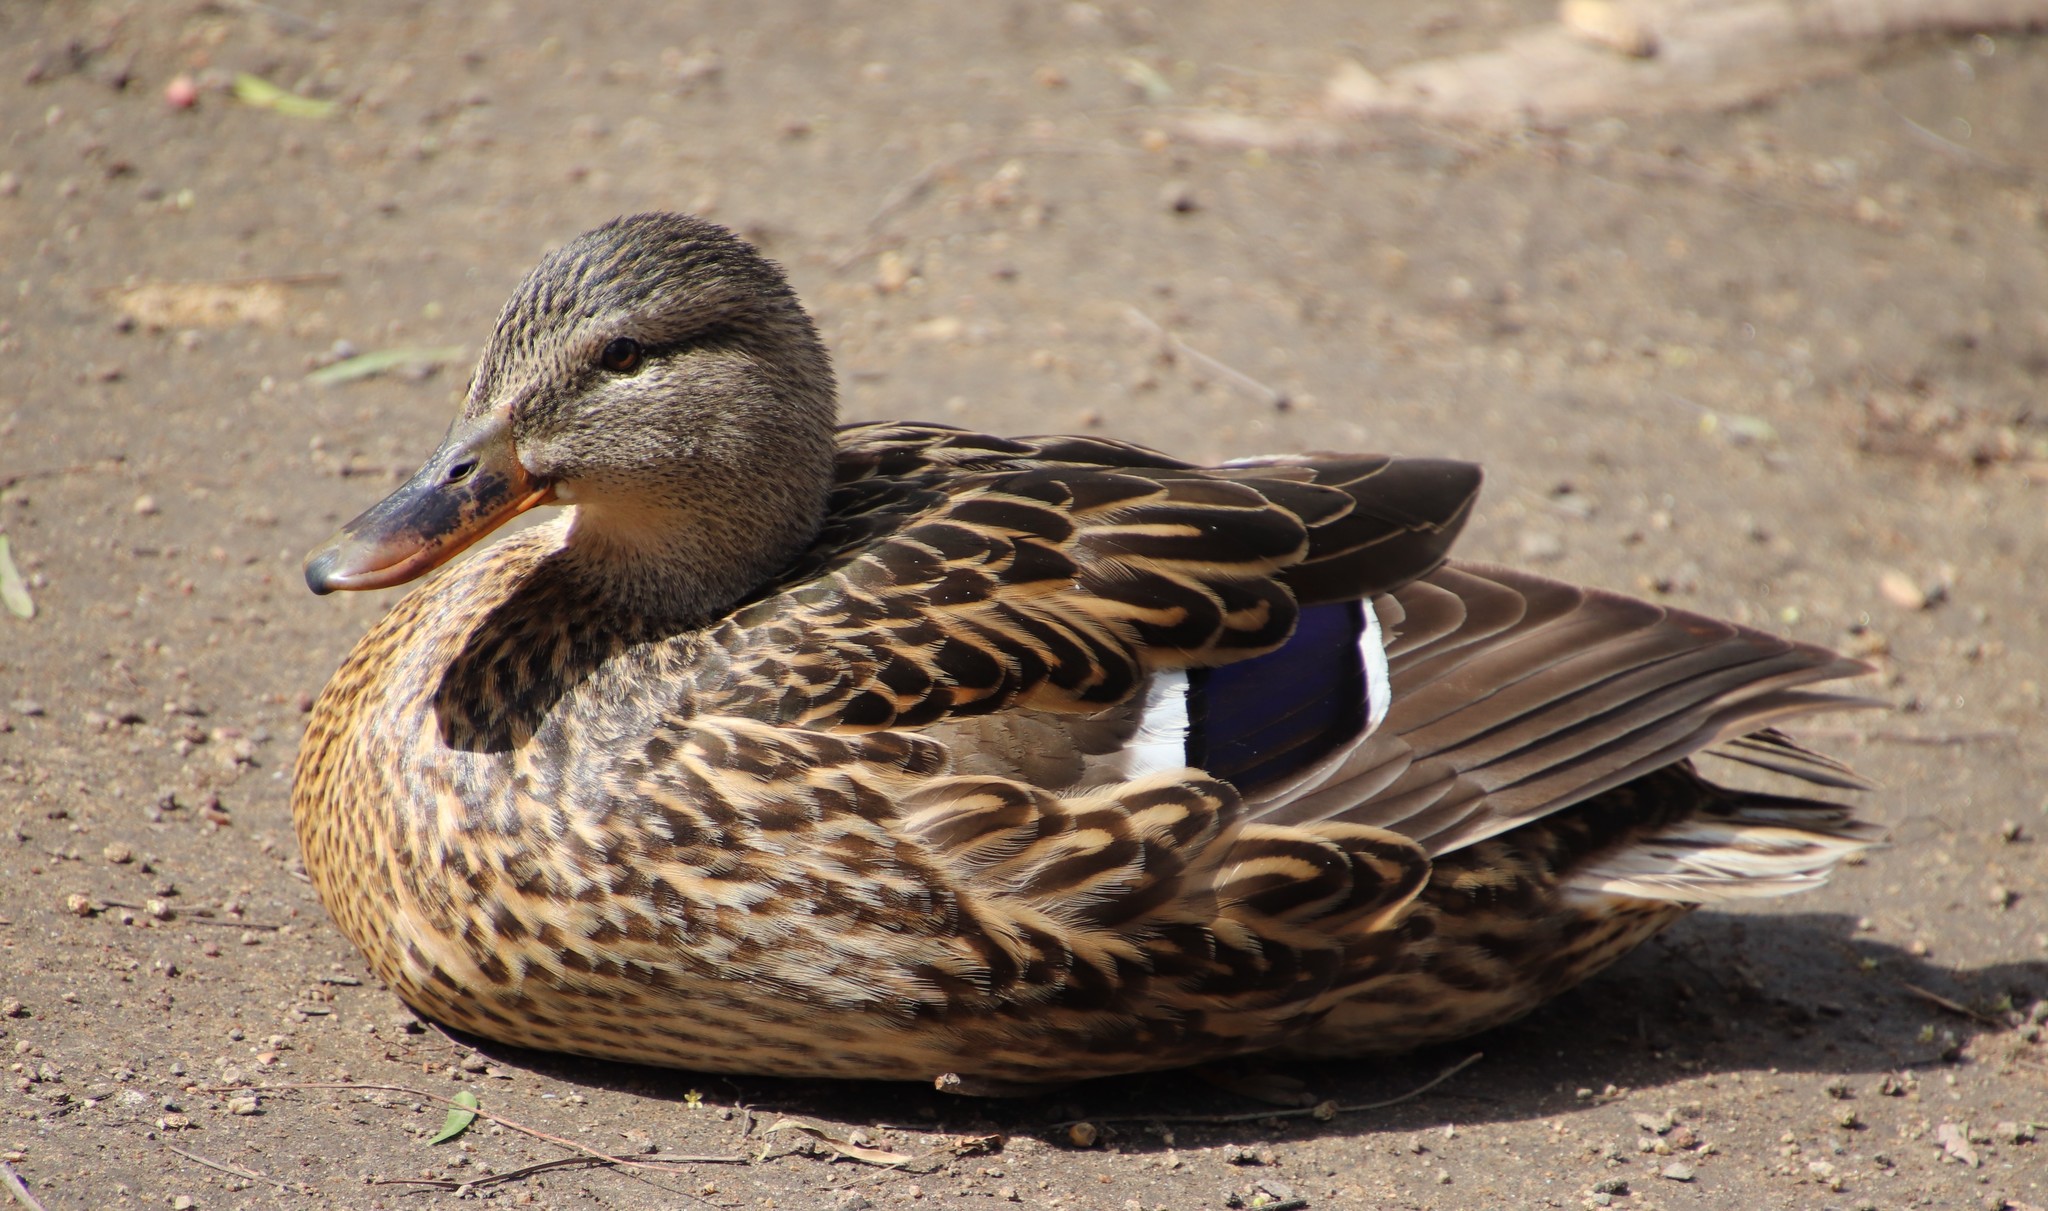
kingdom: Animalia
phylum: Chordata
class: Aves
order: Anseriformes
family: Anatidae
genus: Anas
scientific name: Anas platyrhynchos
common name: Mallard
